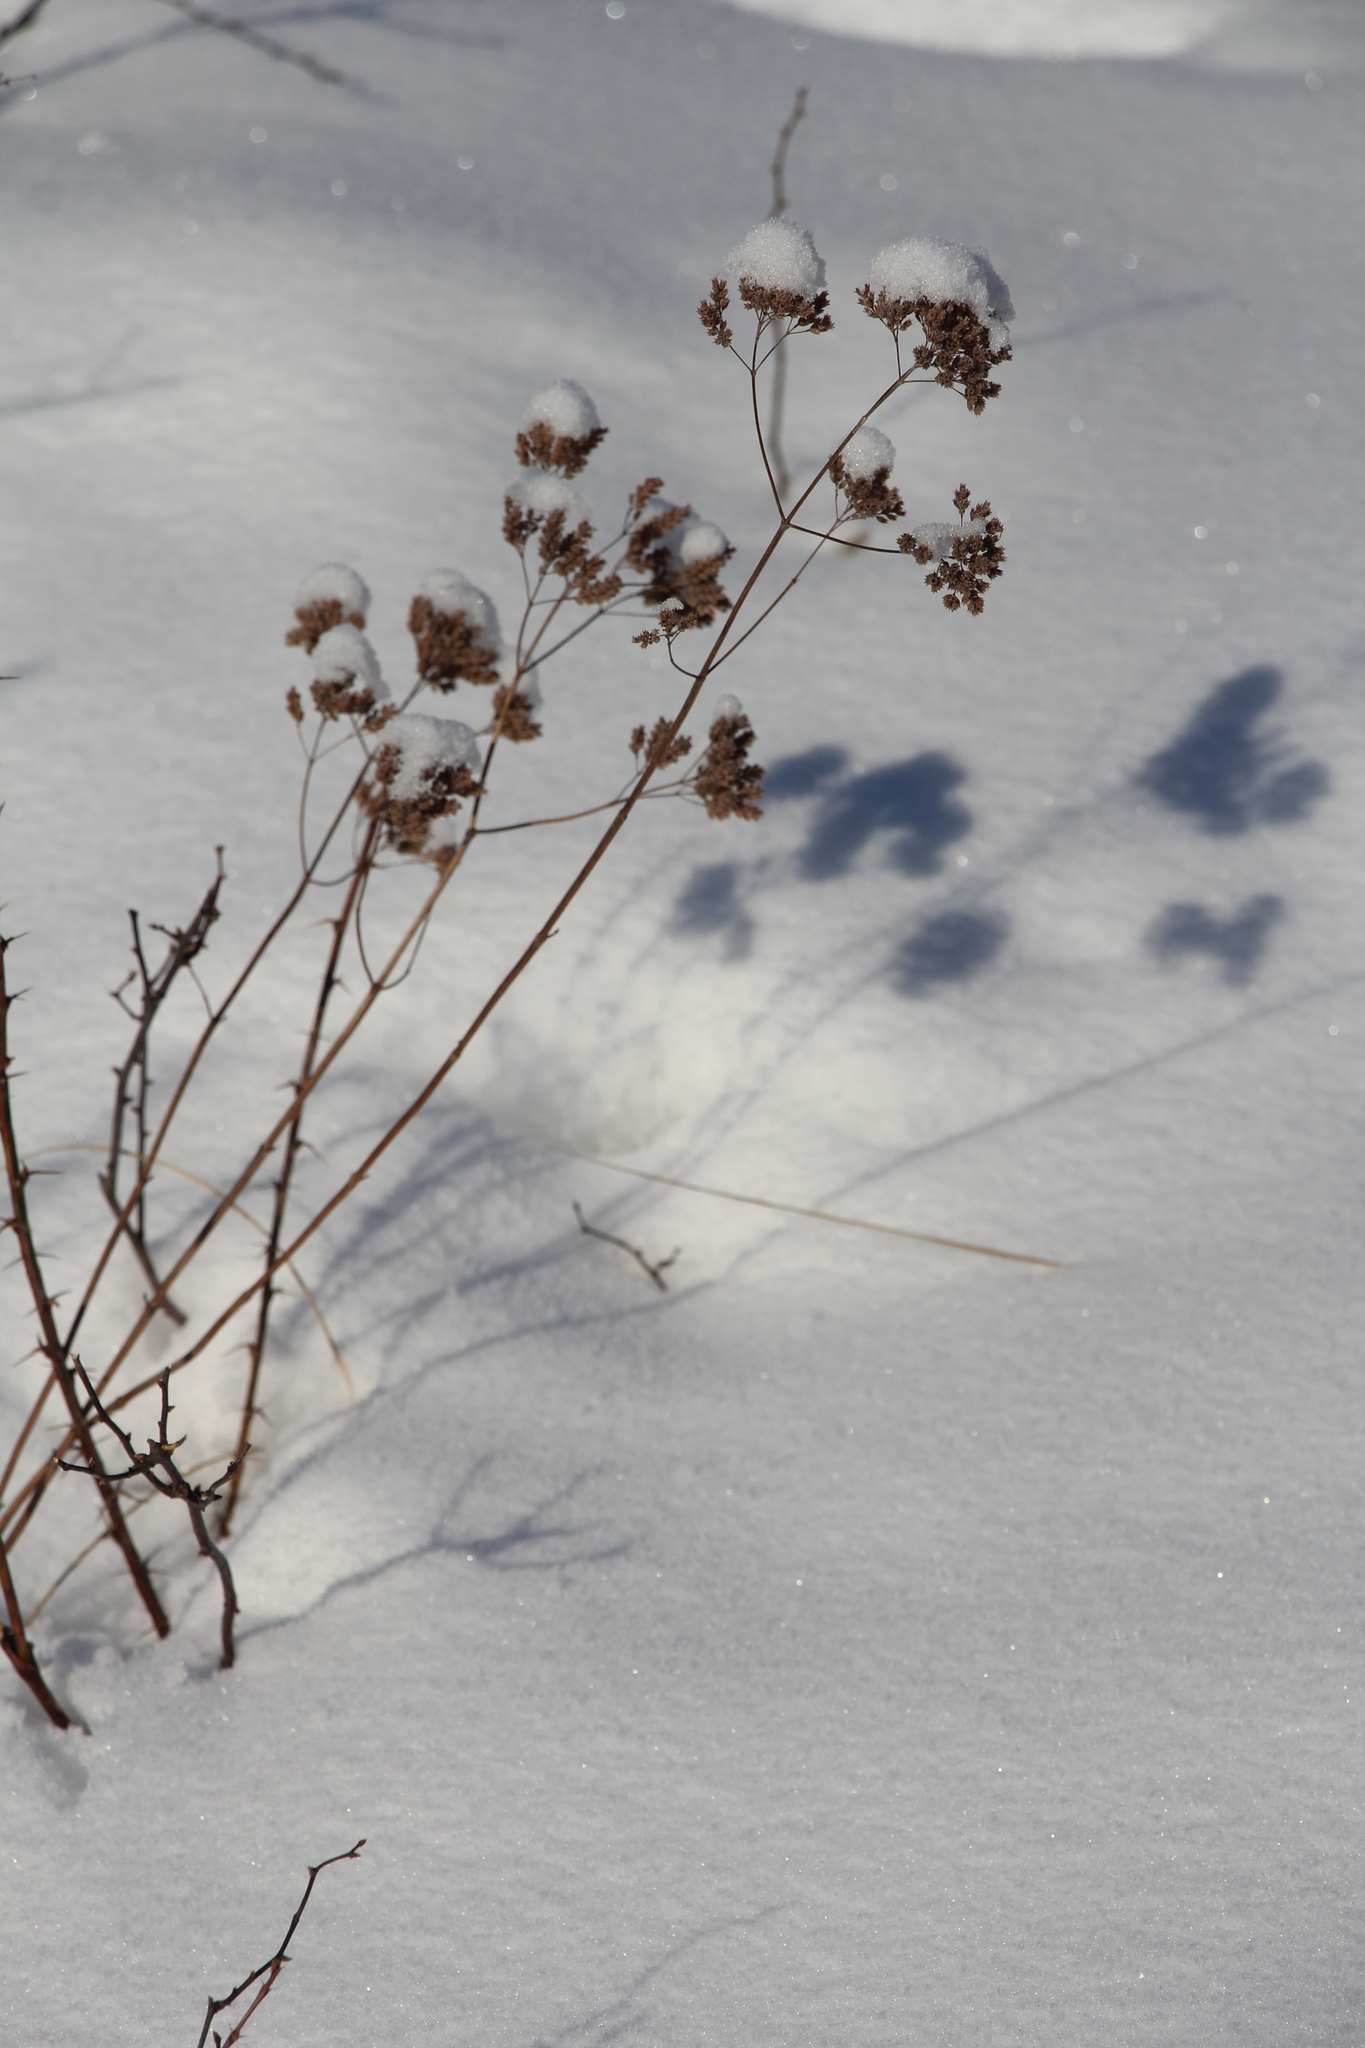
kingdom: Plantae
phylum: Tracheophyta
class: Magnoliopsida
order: Lamiales
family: Lamiaceae
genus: Origanum
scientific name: Origanum vulgare
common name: Wild marjoram
